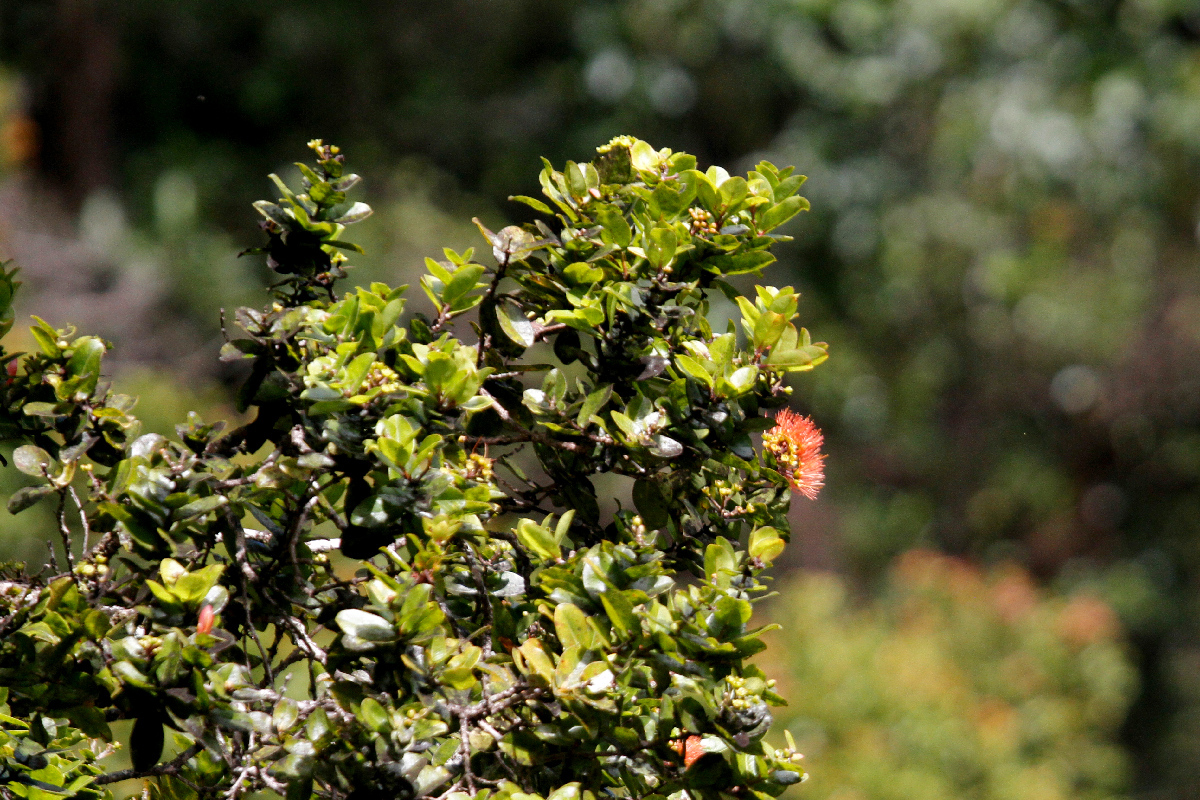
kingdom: Plantae
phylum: Tracheophyta
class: Magnoliopsida
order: Myrtales
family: Myrtaceae
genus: Metrosideros
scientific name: Metrosideros polymorpha
